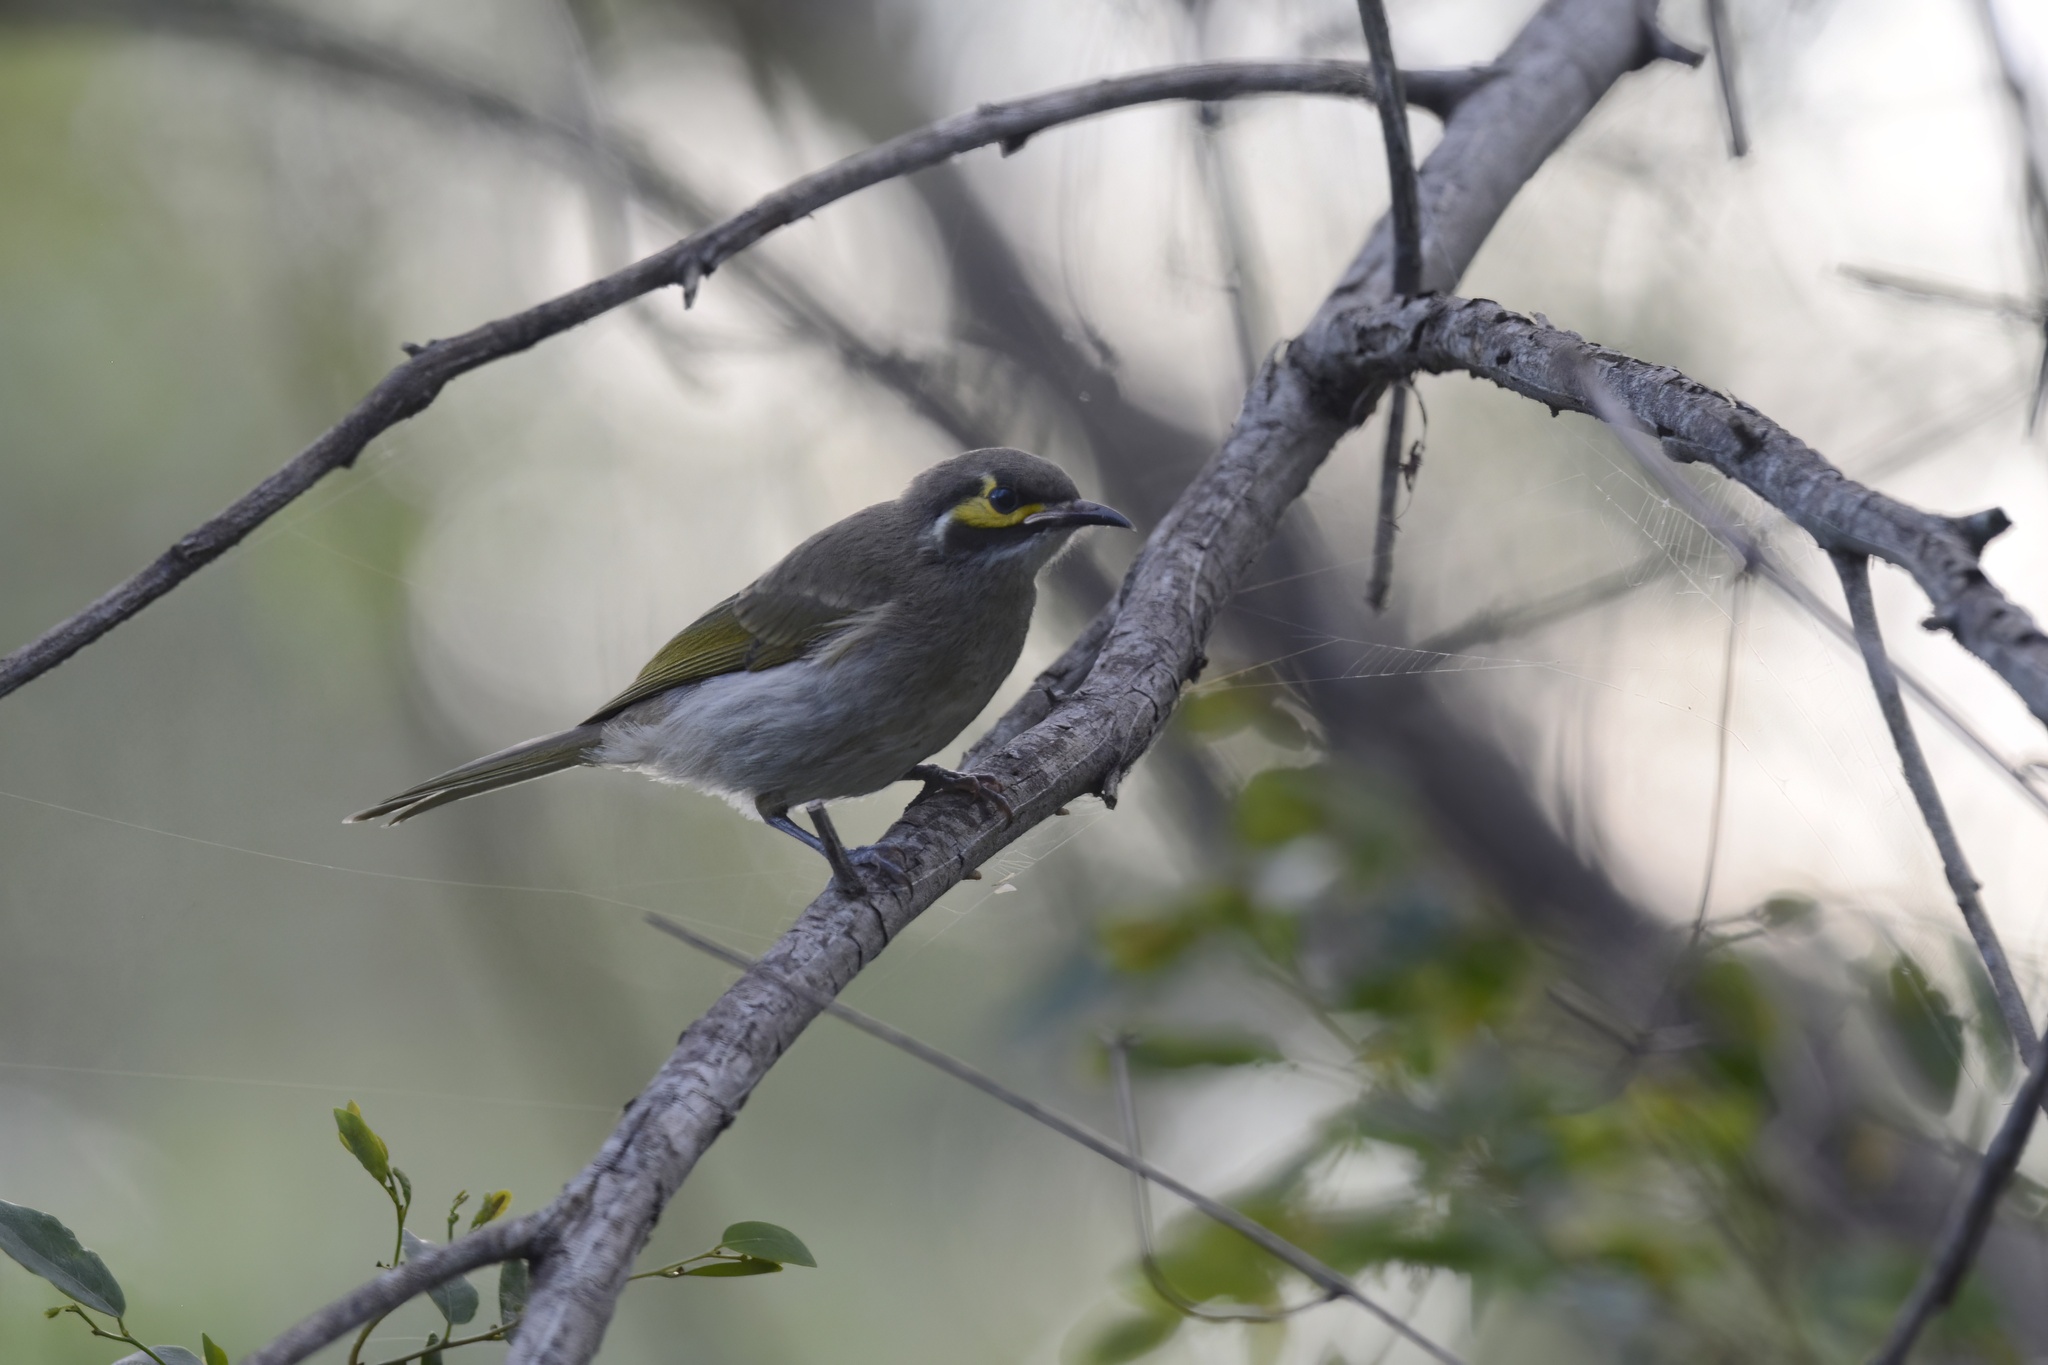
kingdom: Animalia
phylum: Chordata
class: Aves
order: Passeriformes
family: Meliphagidae
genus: Caligavis
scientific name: Caligavis chrysops
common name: Yellow-faced honeyeater
